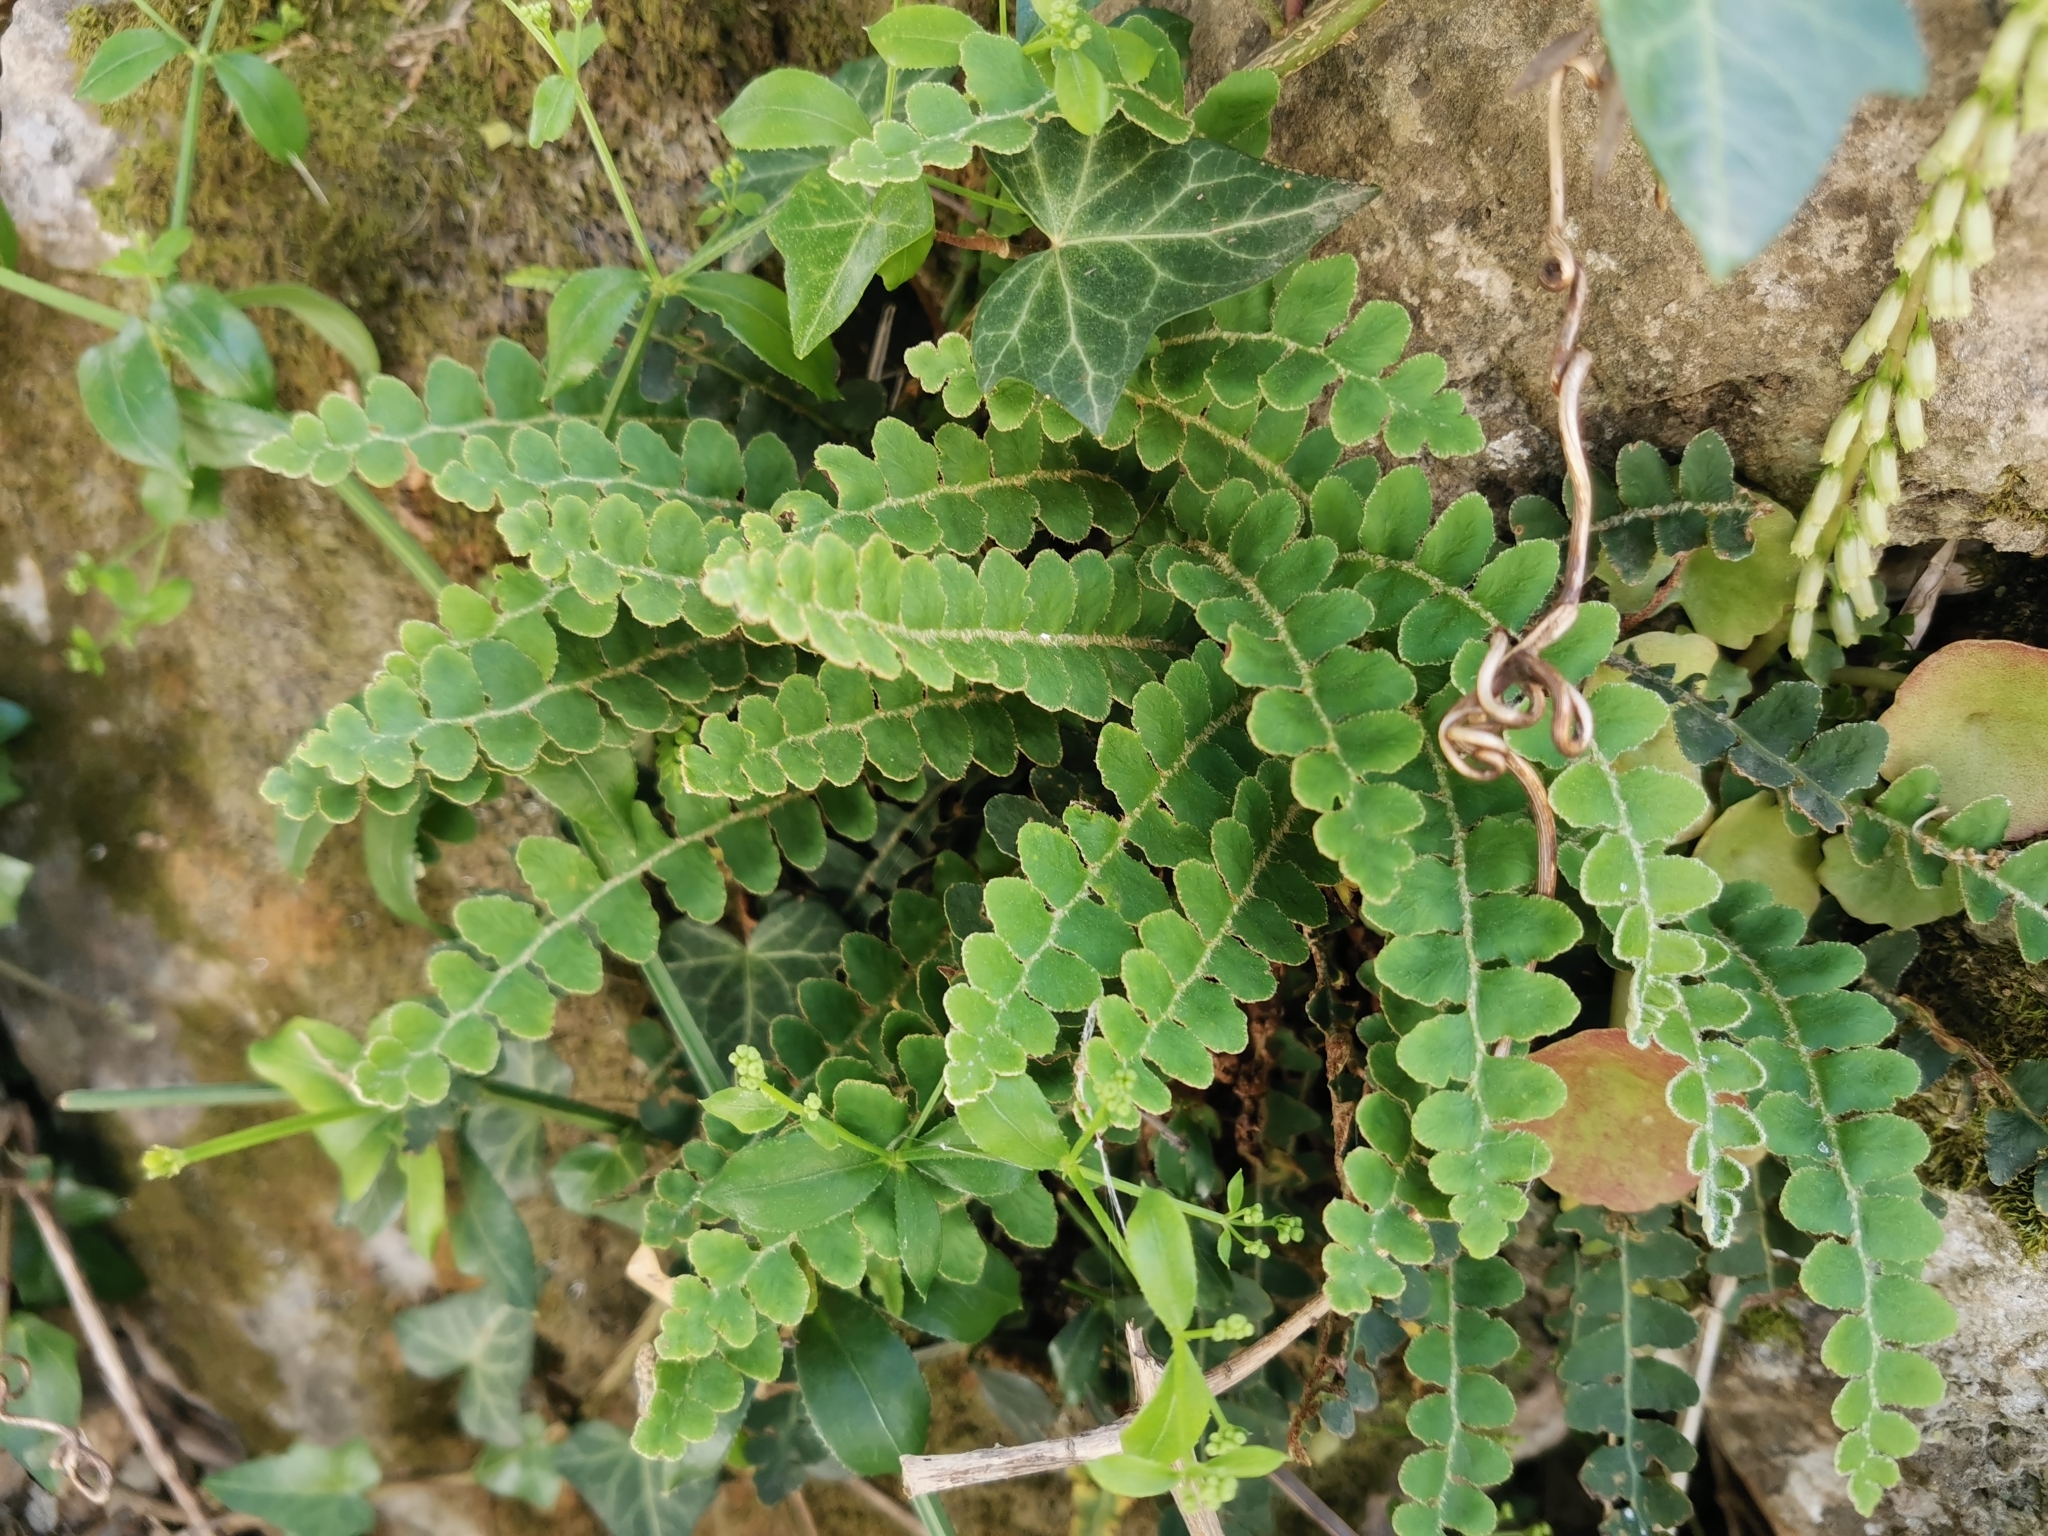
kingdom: Plantae
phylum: Tracheophyta
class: Polypodiopsida
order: Polypodiales
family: Aspleniaceae
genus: Asplenium
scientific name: Asplenium ceterach
